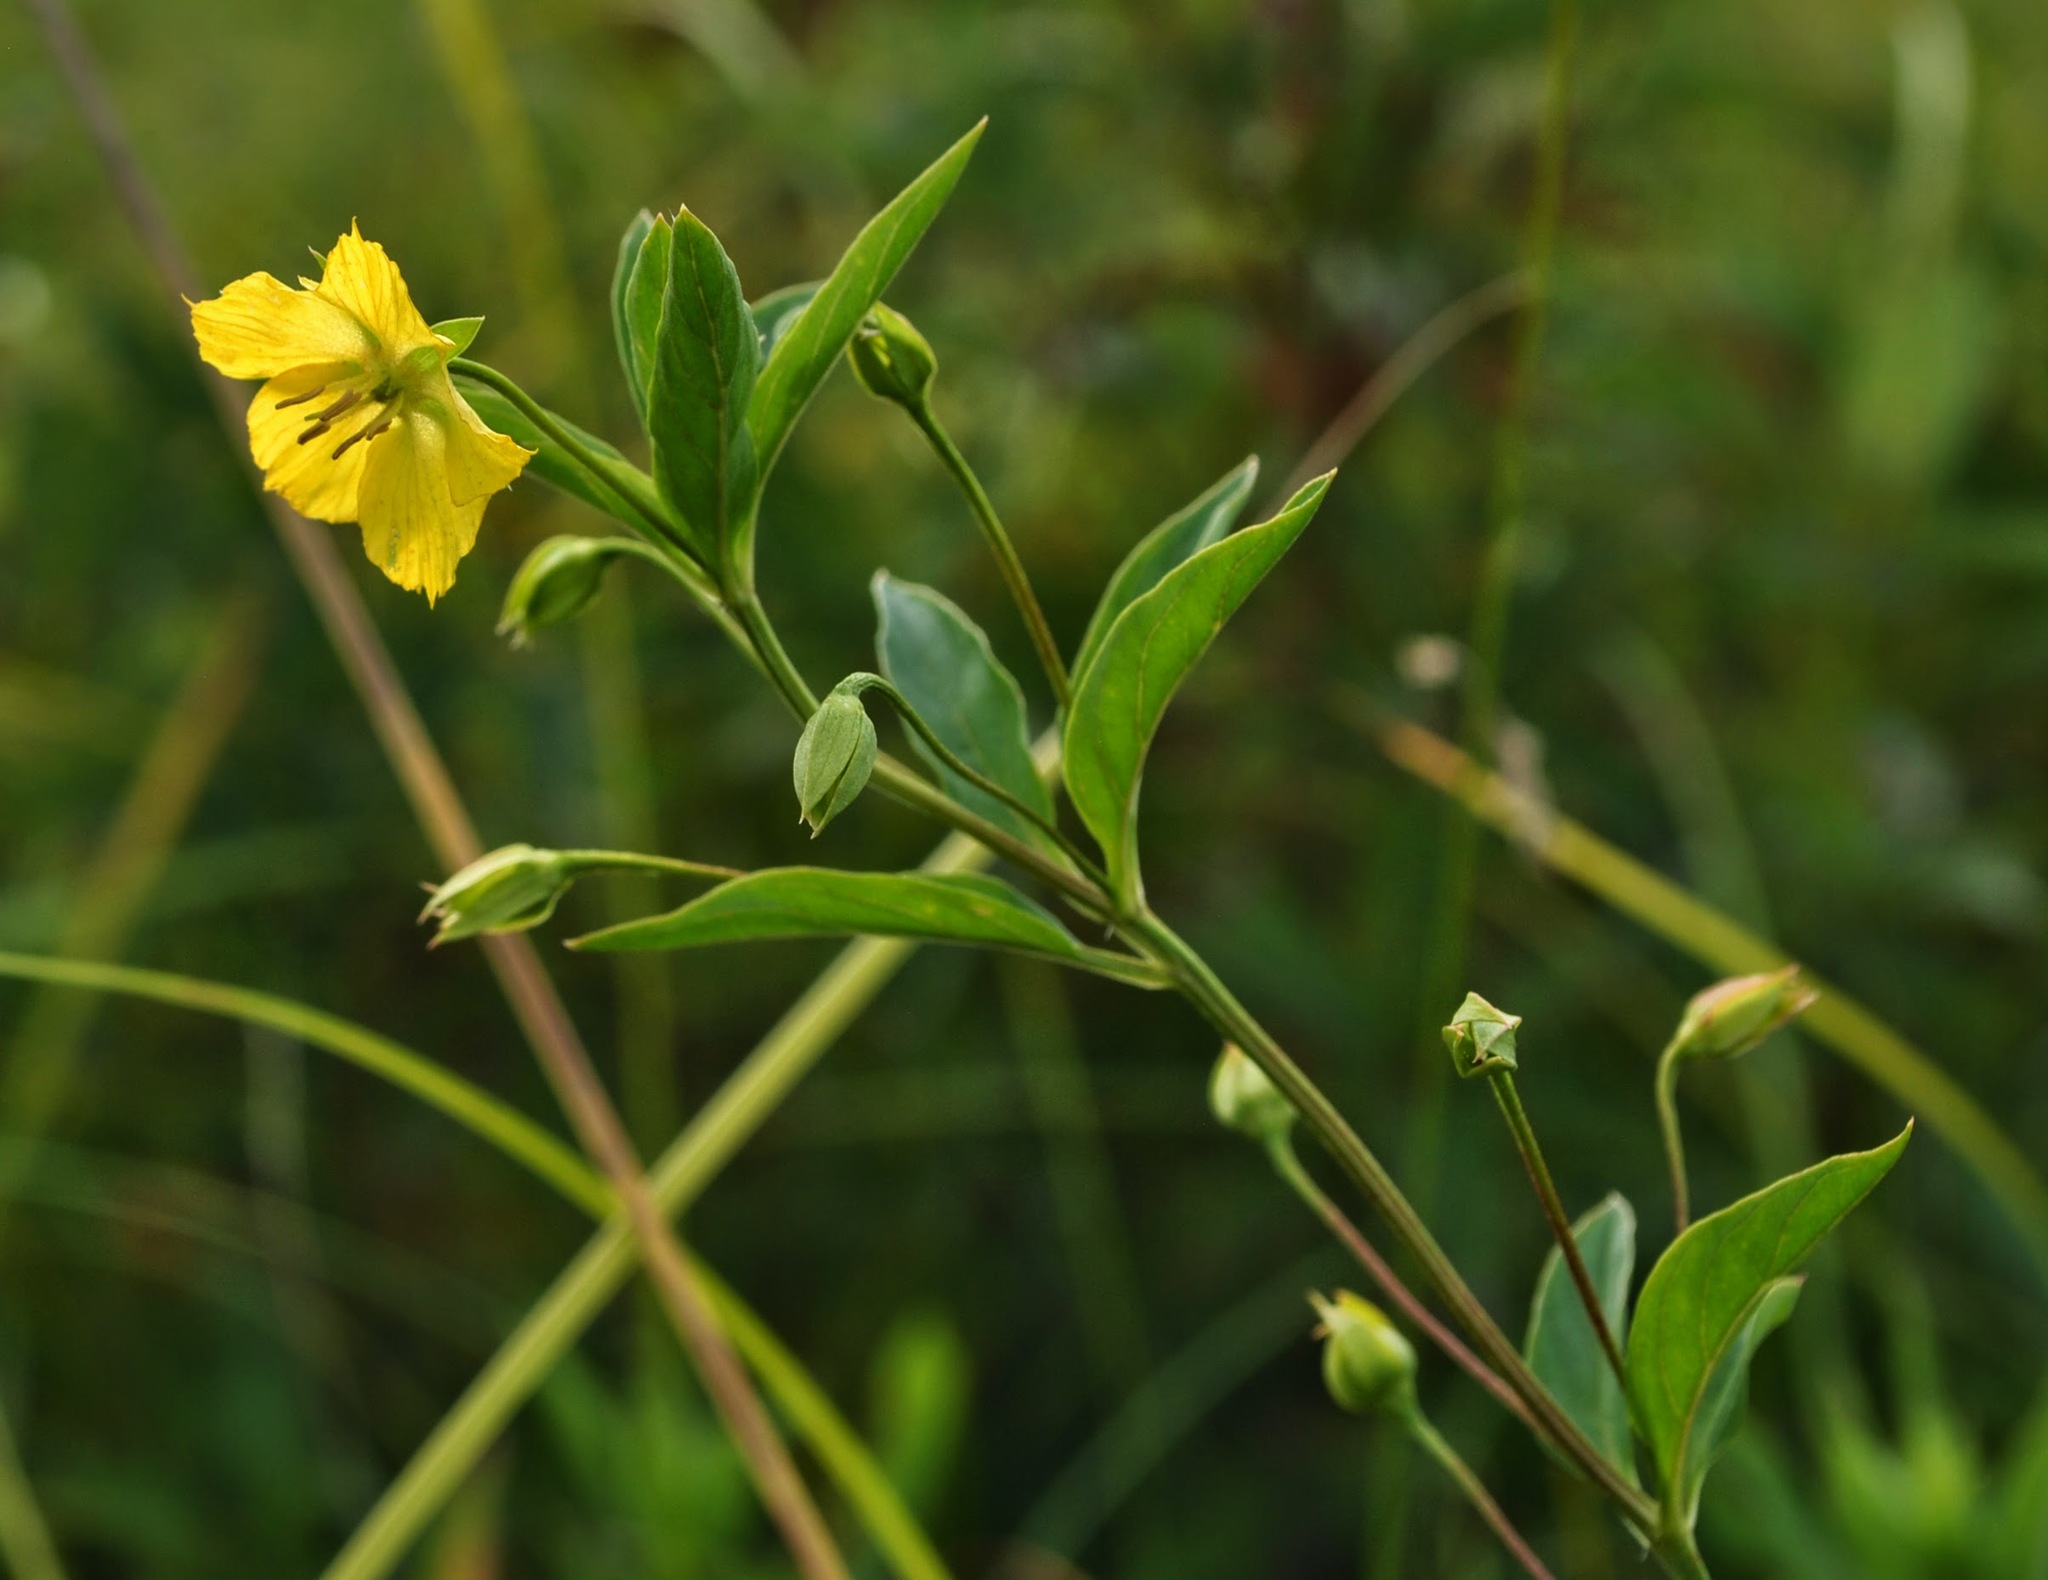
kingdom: Plantae
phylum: Tracheophyta
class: Magnoliopsida
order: Ericales
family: Primulaceae
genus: Lysimachia
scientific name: Lysimachia lanceolata
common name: Lance-leaved loosestrife
